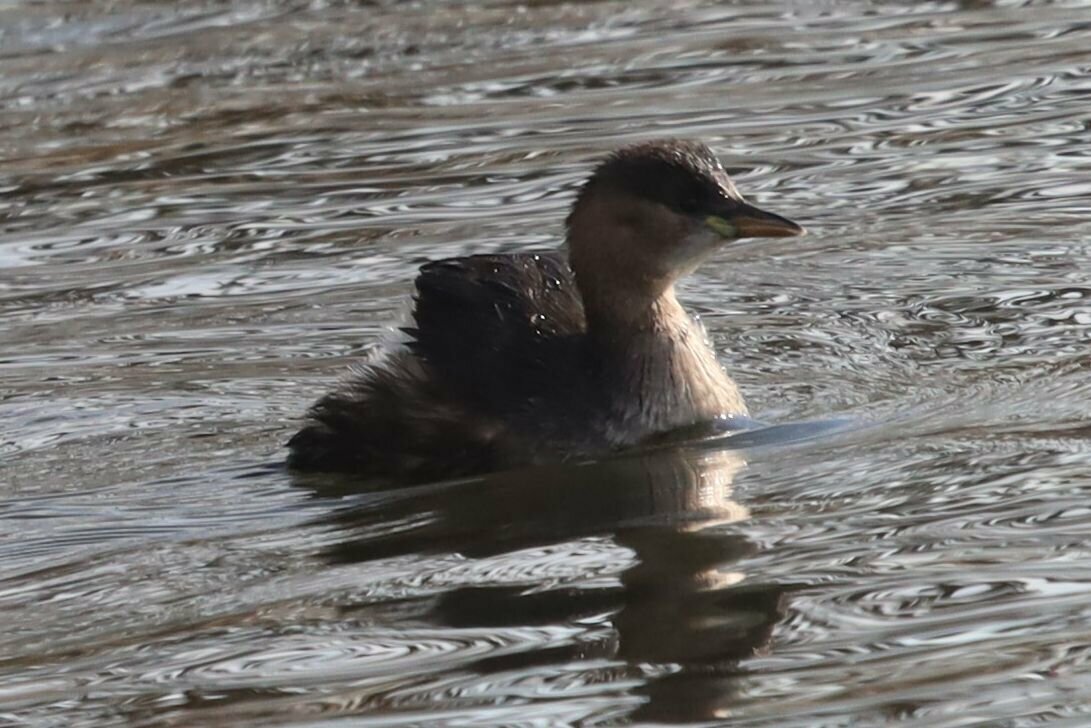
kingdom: Animalia
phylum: Chordata
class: Aves
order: Podicipediformes
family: Podicipedidae
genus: Tachybaptus
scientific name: Tachybaptus ruficollis
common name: Little grebe
